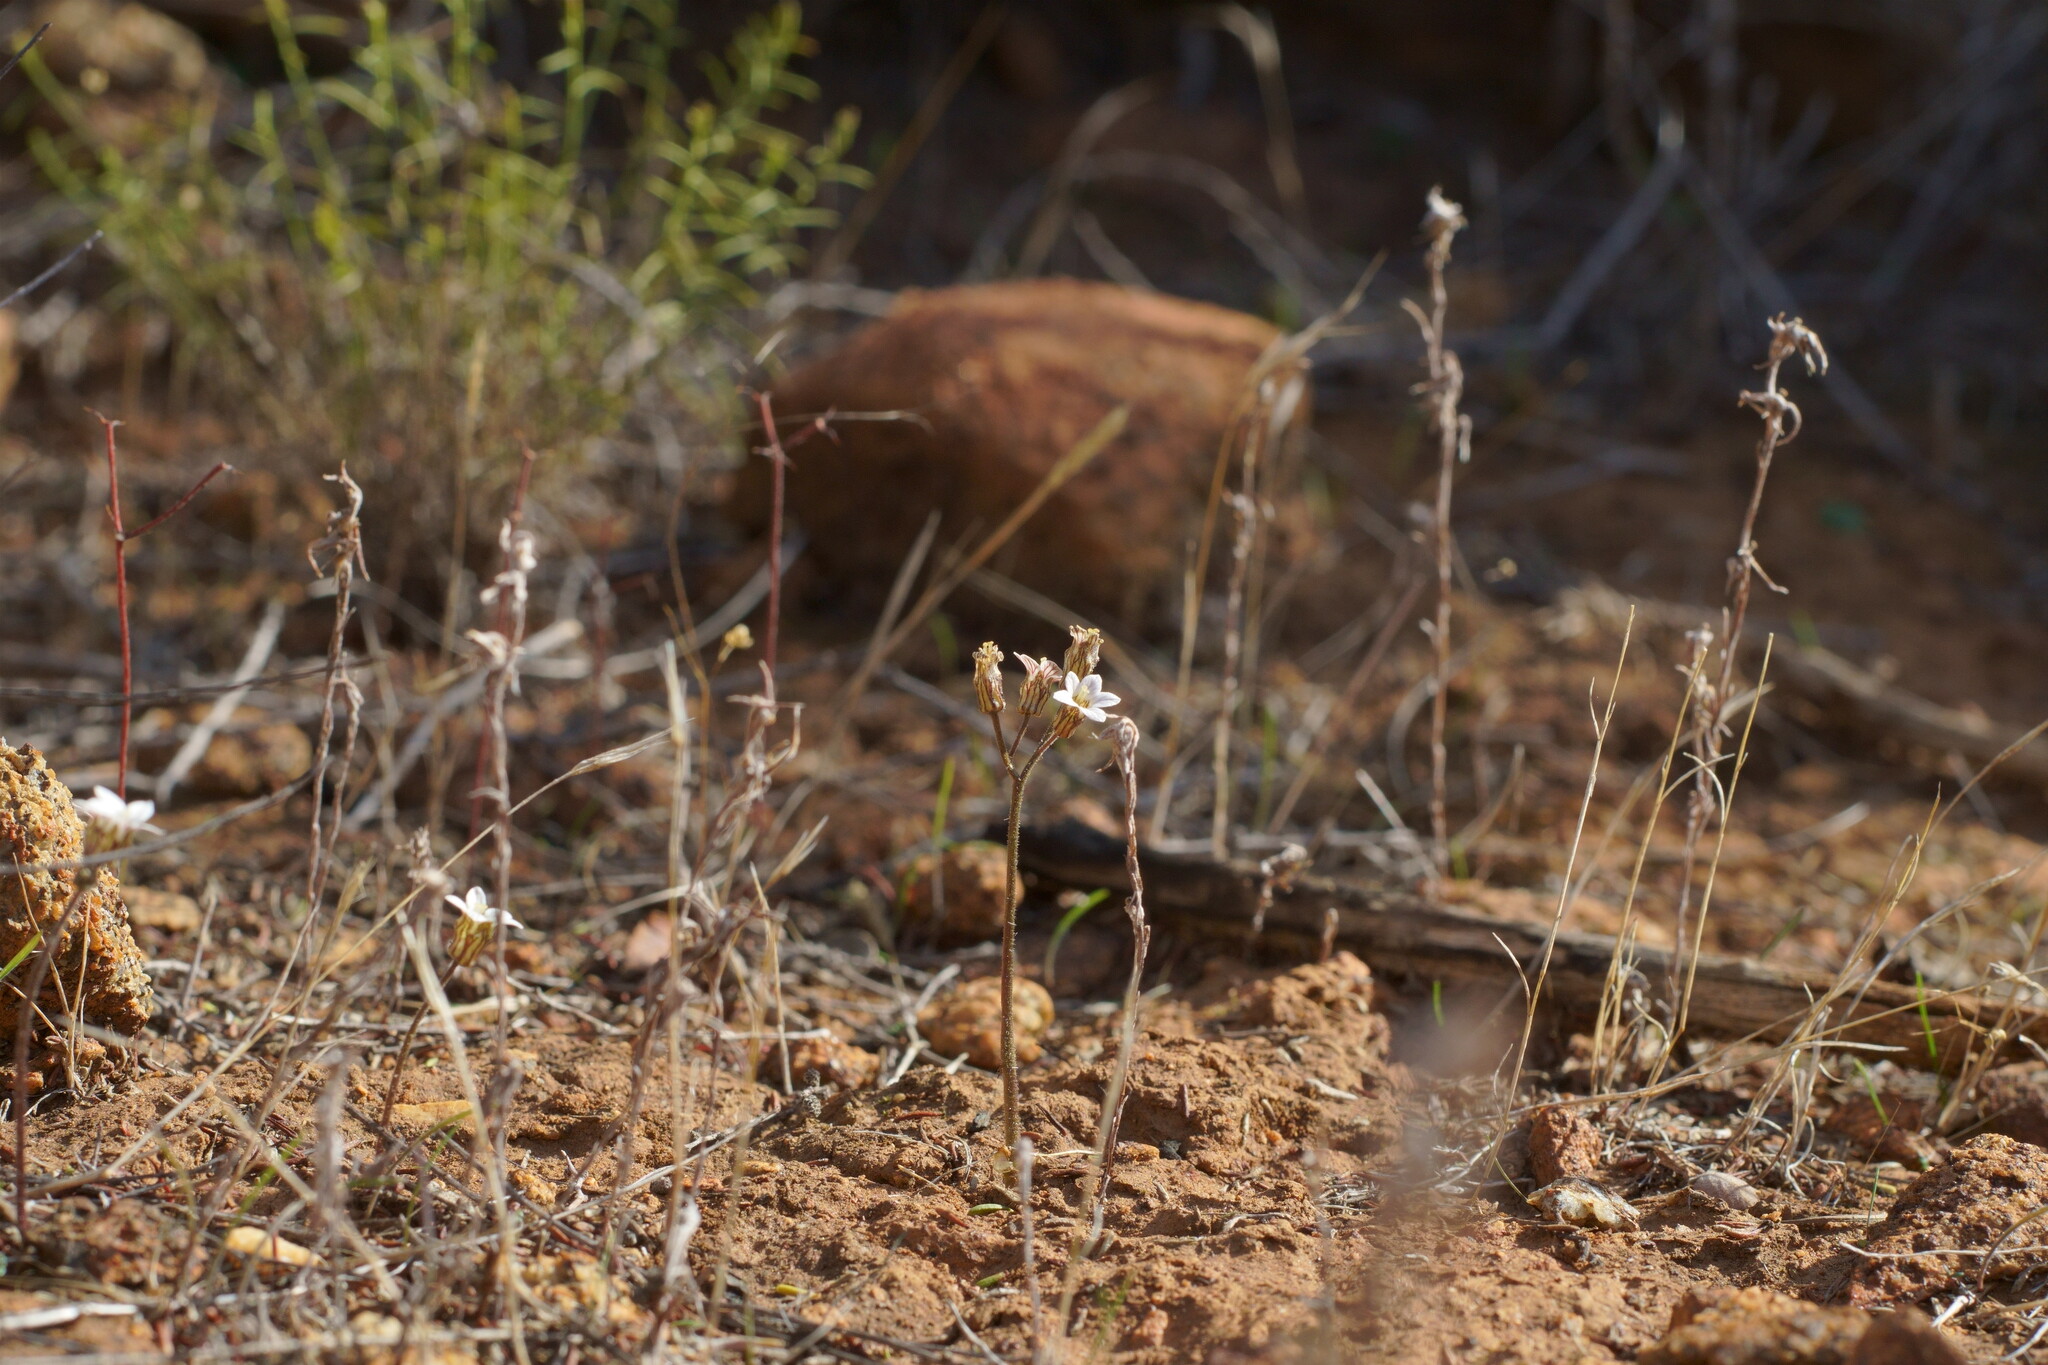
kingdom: Plantae
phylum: Tracheophyta
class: Magnoliopsida
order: Saxifragales
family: Saxifragaceae
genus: Jepsonia
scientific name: Jepsonia parryi
